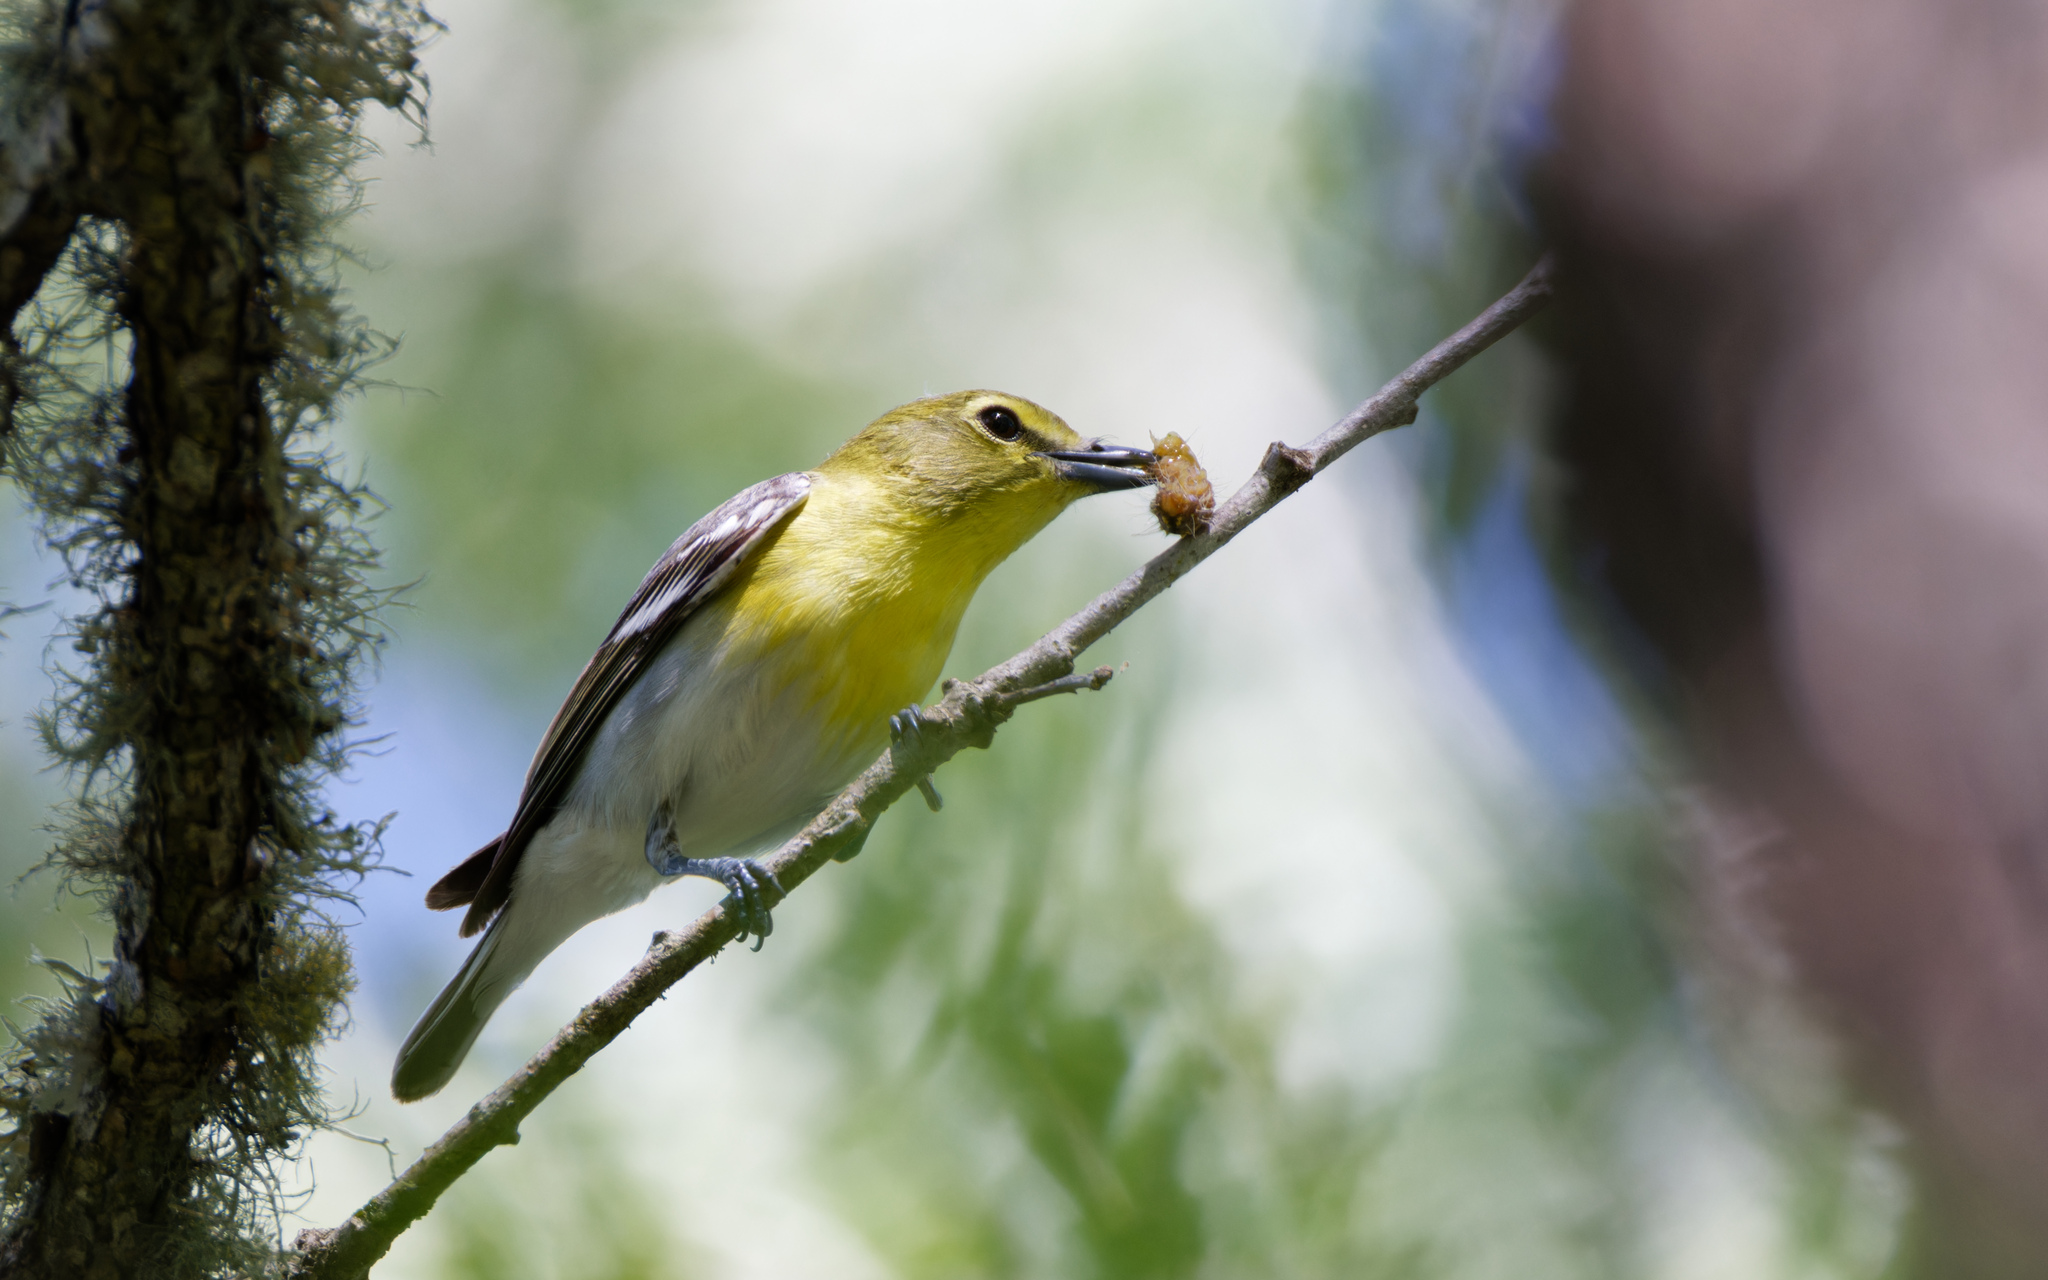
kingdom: Animalia
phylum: Chordata
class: Aves
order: Passeriformes
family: Vireonidae
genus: Vireo
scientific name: Vireo flavifrons
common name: Yellow-throated vireo
